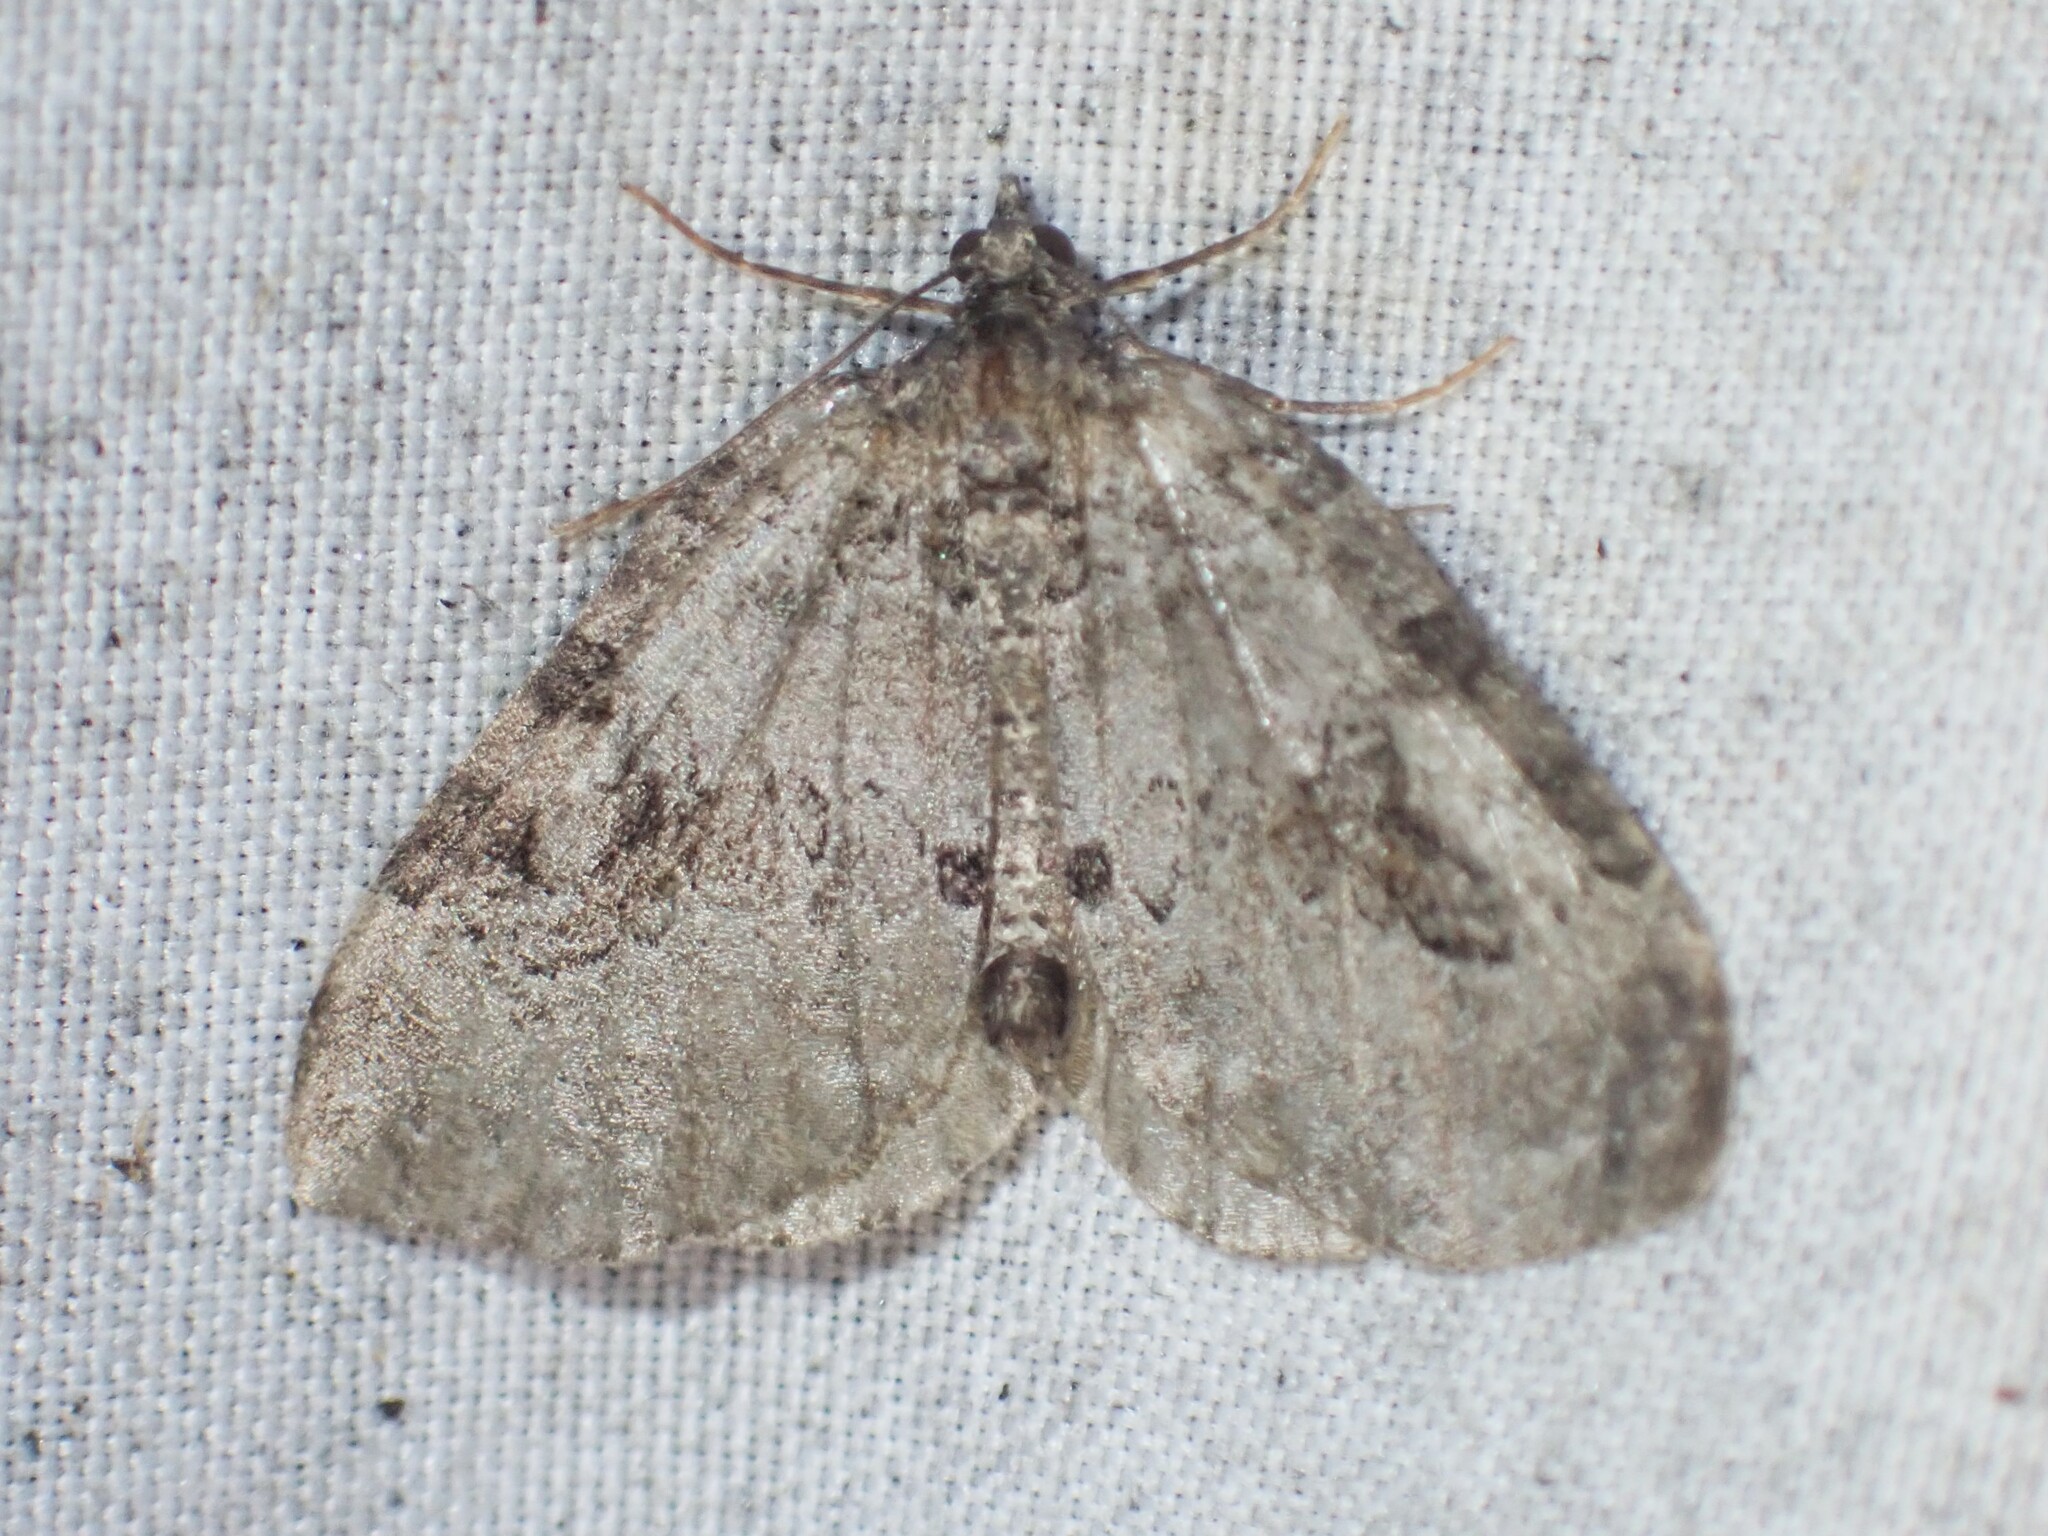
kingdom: Animalia
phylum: Arthropoda
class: Insecta
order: Lepidoptera
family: Geometridae
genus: Plemyria
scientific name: Plemyria georgii
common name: George's carpet moth
